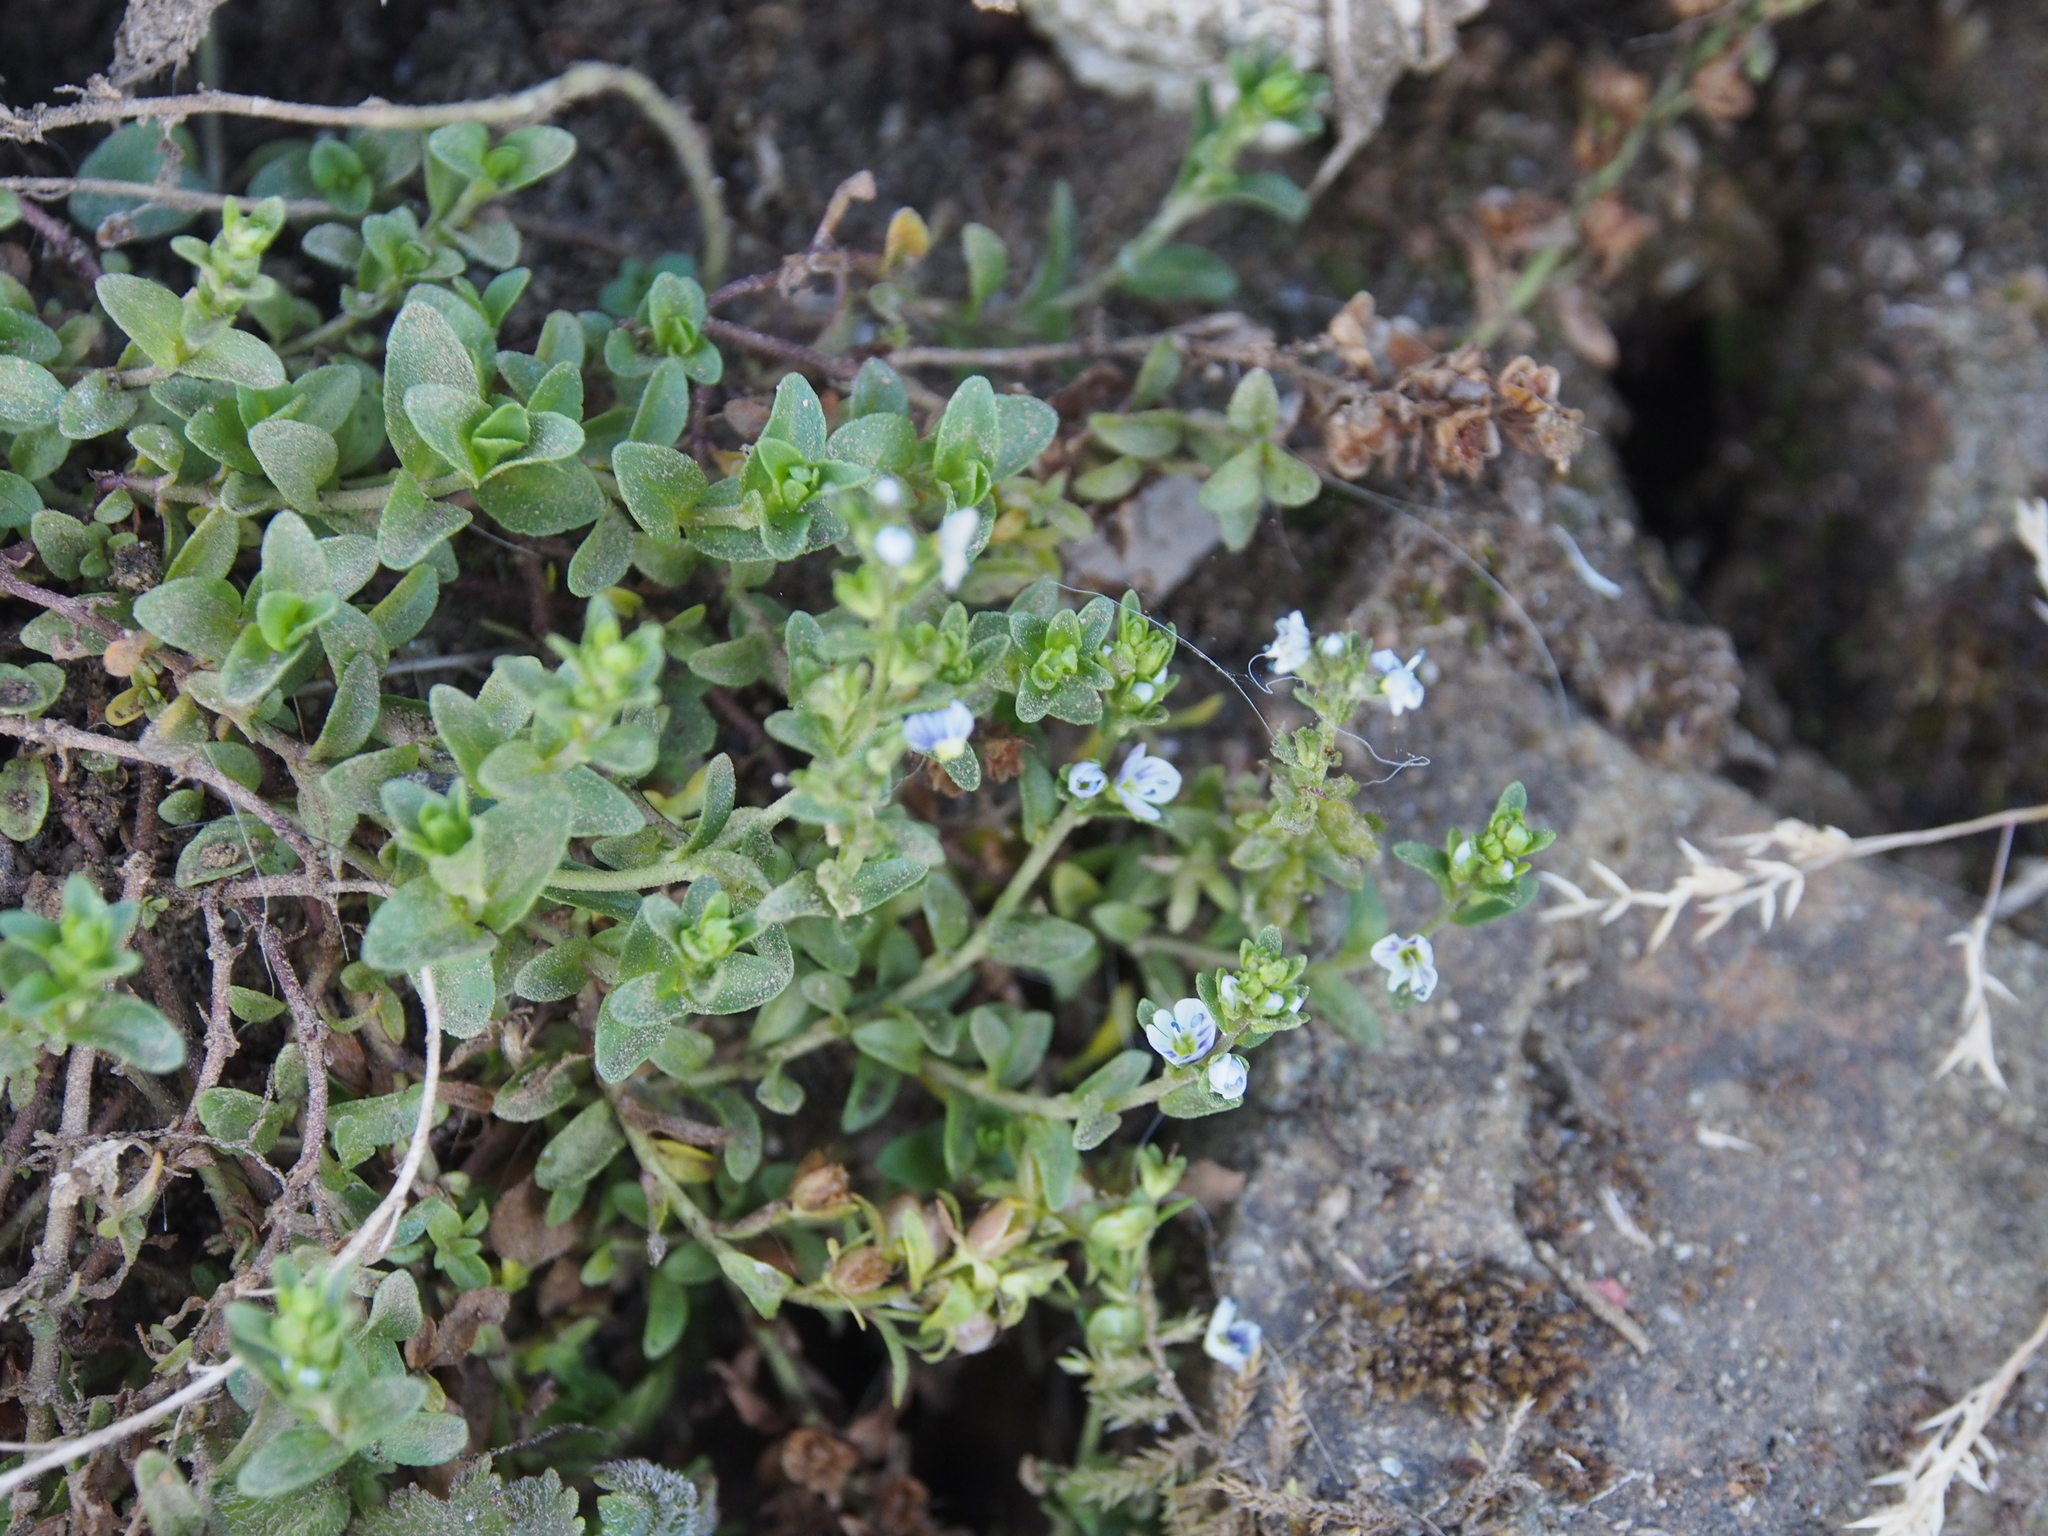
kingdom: Plantae
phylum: Tracheophyta
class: Magnoliopsida
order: Lamiales
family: Plantaginaceae
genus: Veronica
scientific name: Veronica serpyllifolia
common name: Thyme-leaved speedwell
